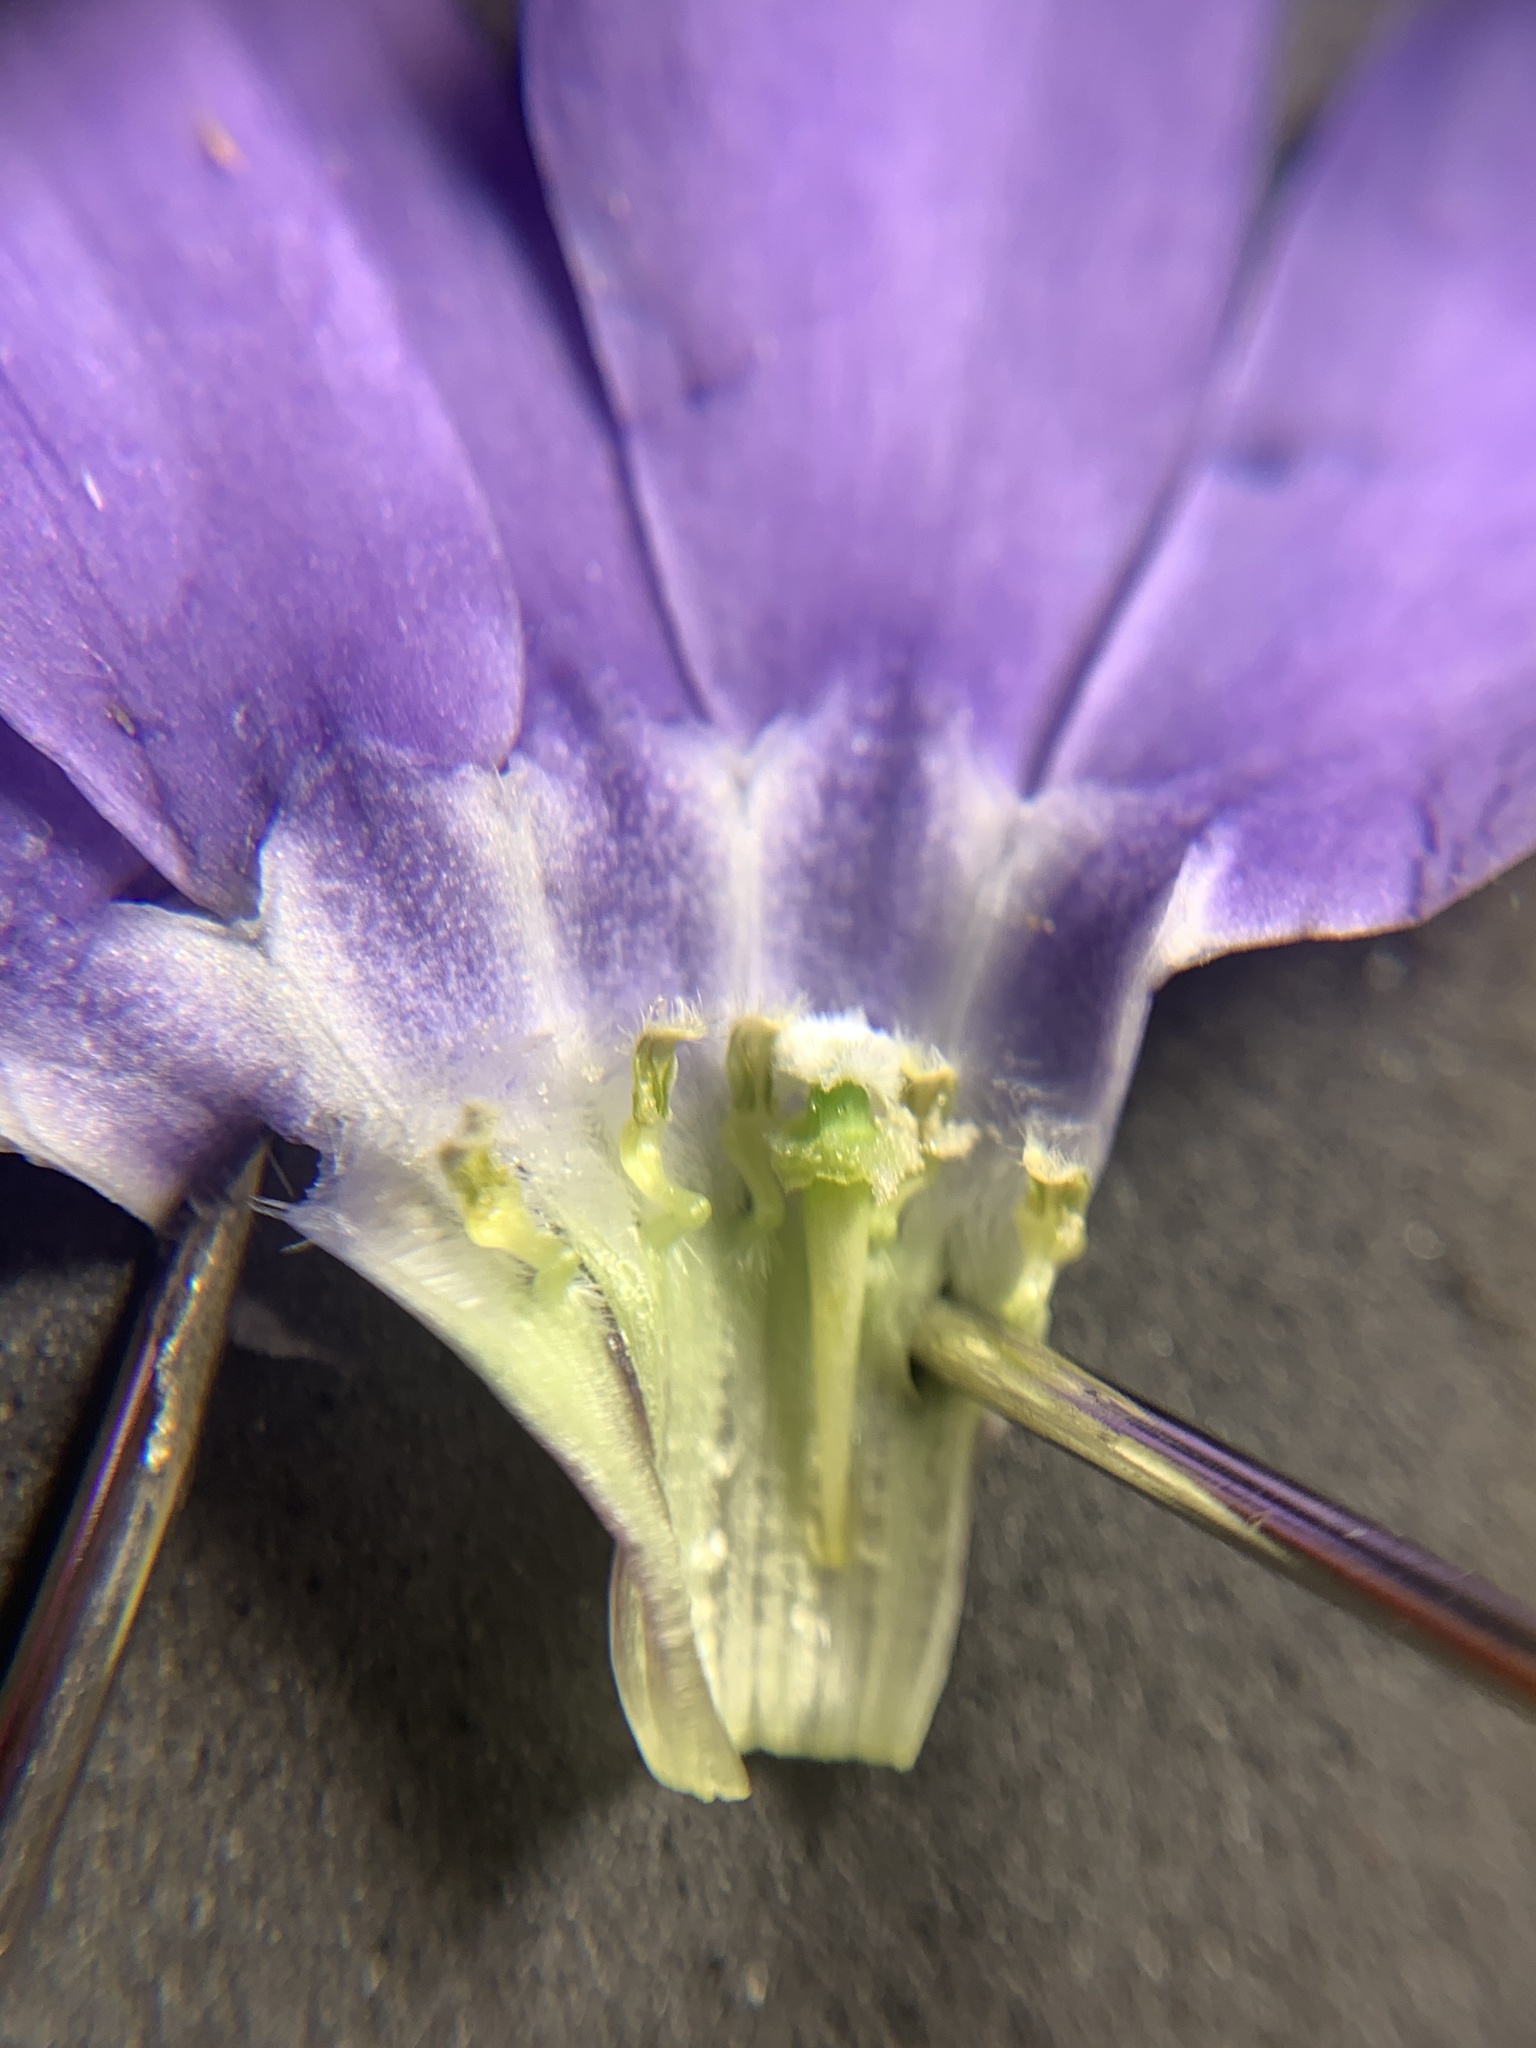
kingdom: Plantae
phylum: Tracheophyta
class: Magnoliopsida
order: Gentianales
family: Apocynaceae
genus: Vinca
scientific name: Vinca minor
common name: Lesser periwinkle
